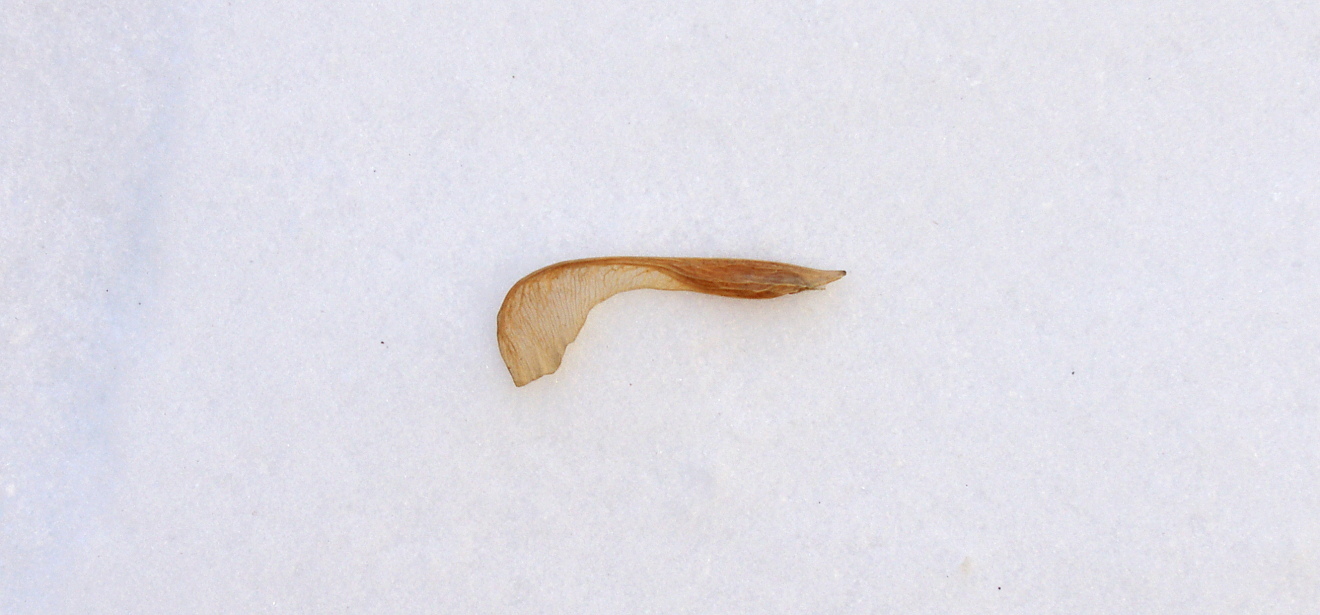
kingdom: Plantae
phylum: Tracheophyta
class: Magnoliopsida
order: Sapindales
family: Sapindaceae
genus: Acer
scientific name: Acer negundo
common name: Ashleaf maple
